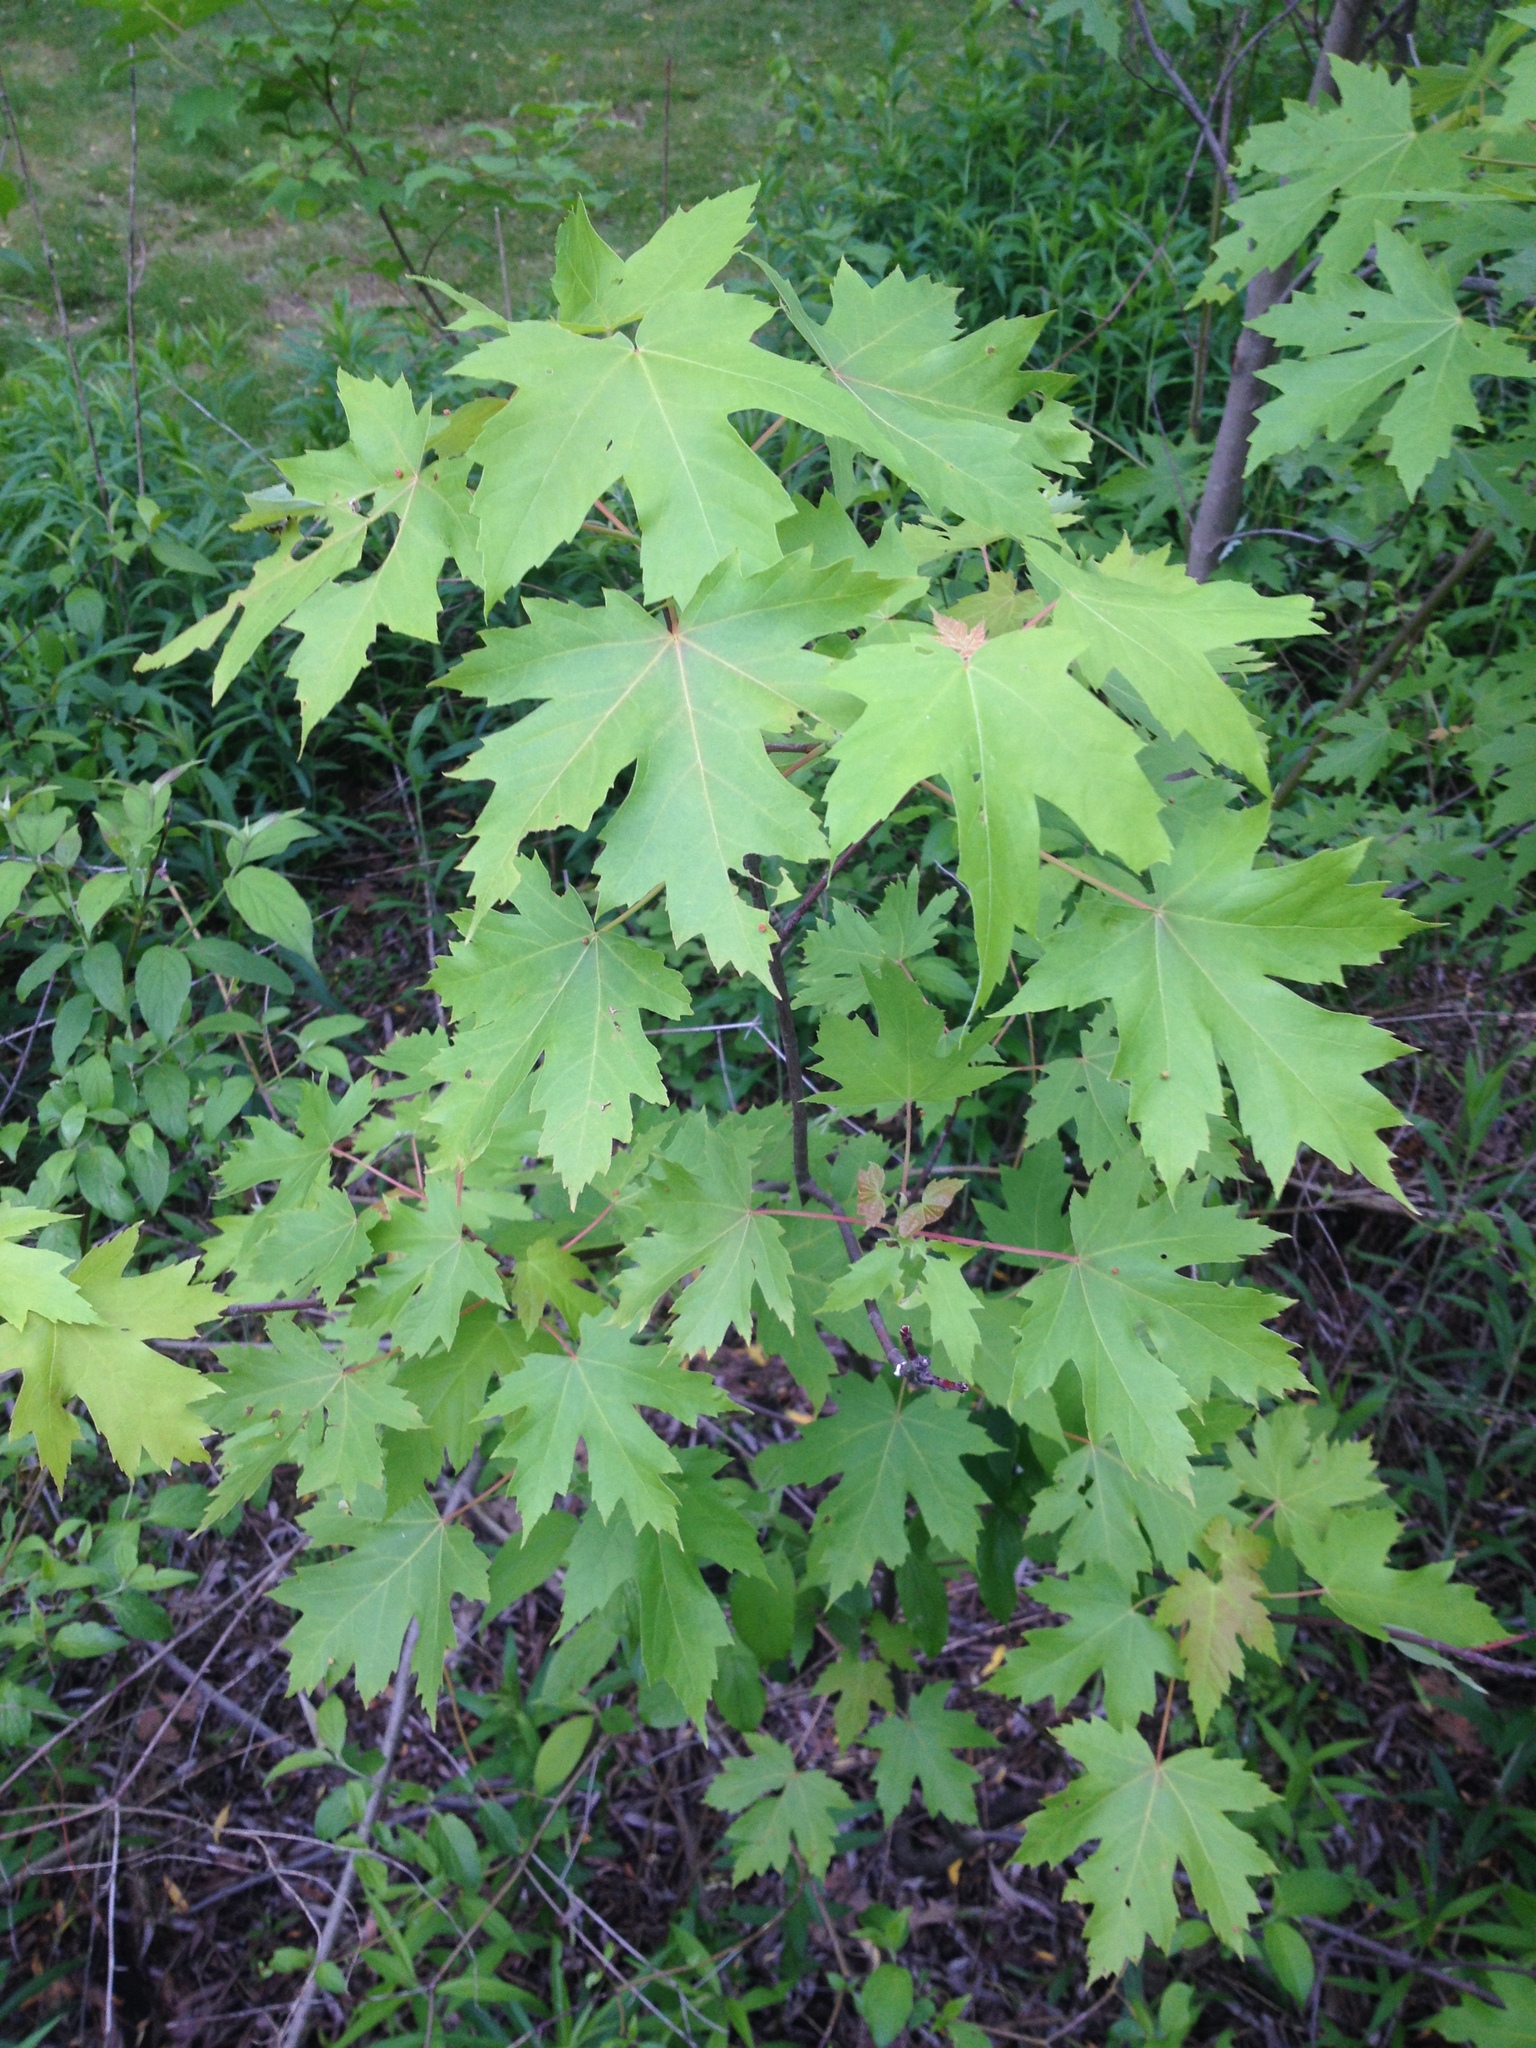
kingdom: Plantae
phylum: Tracheophyta
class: Magnoliopsida
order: Sapindales
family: Sapindaceae
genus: Acer
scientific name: Acer saccharinum
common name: Silver maple
